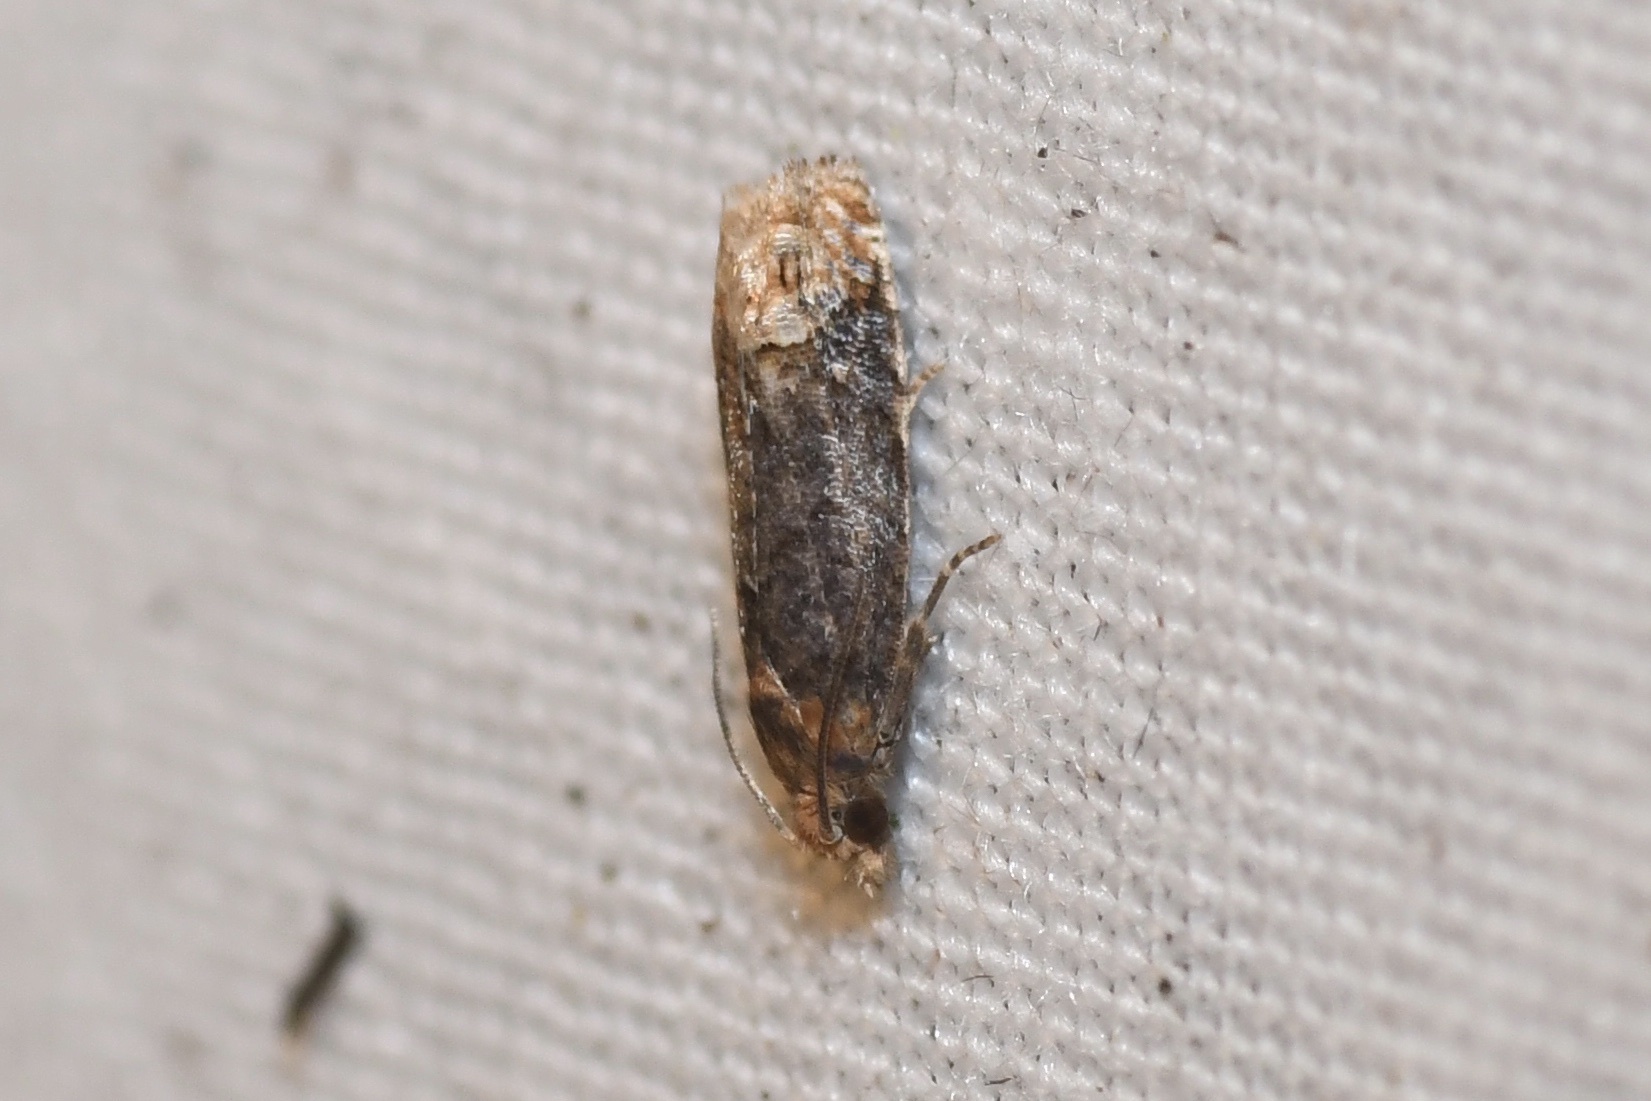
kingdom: Animalia
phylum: Arthropoda
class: Insecta
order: Lepidoptera
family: Tortricidae
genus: Eucosma
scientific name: Eucosma ochroterminana
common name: Buff-tipped eucosma moth
